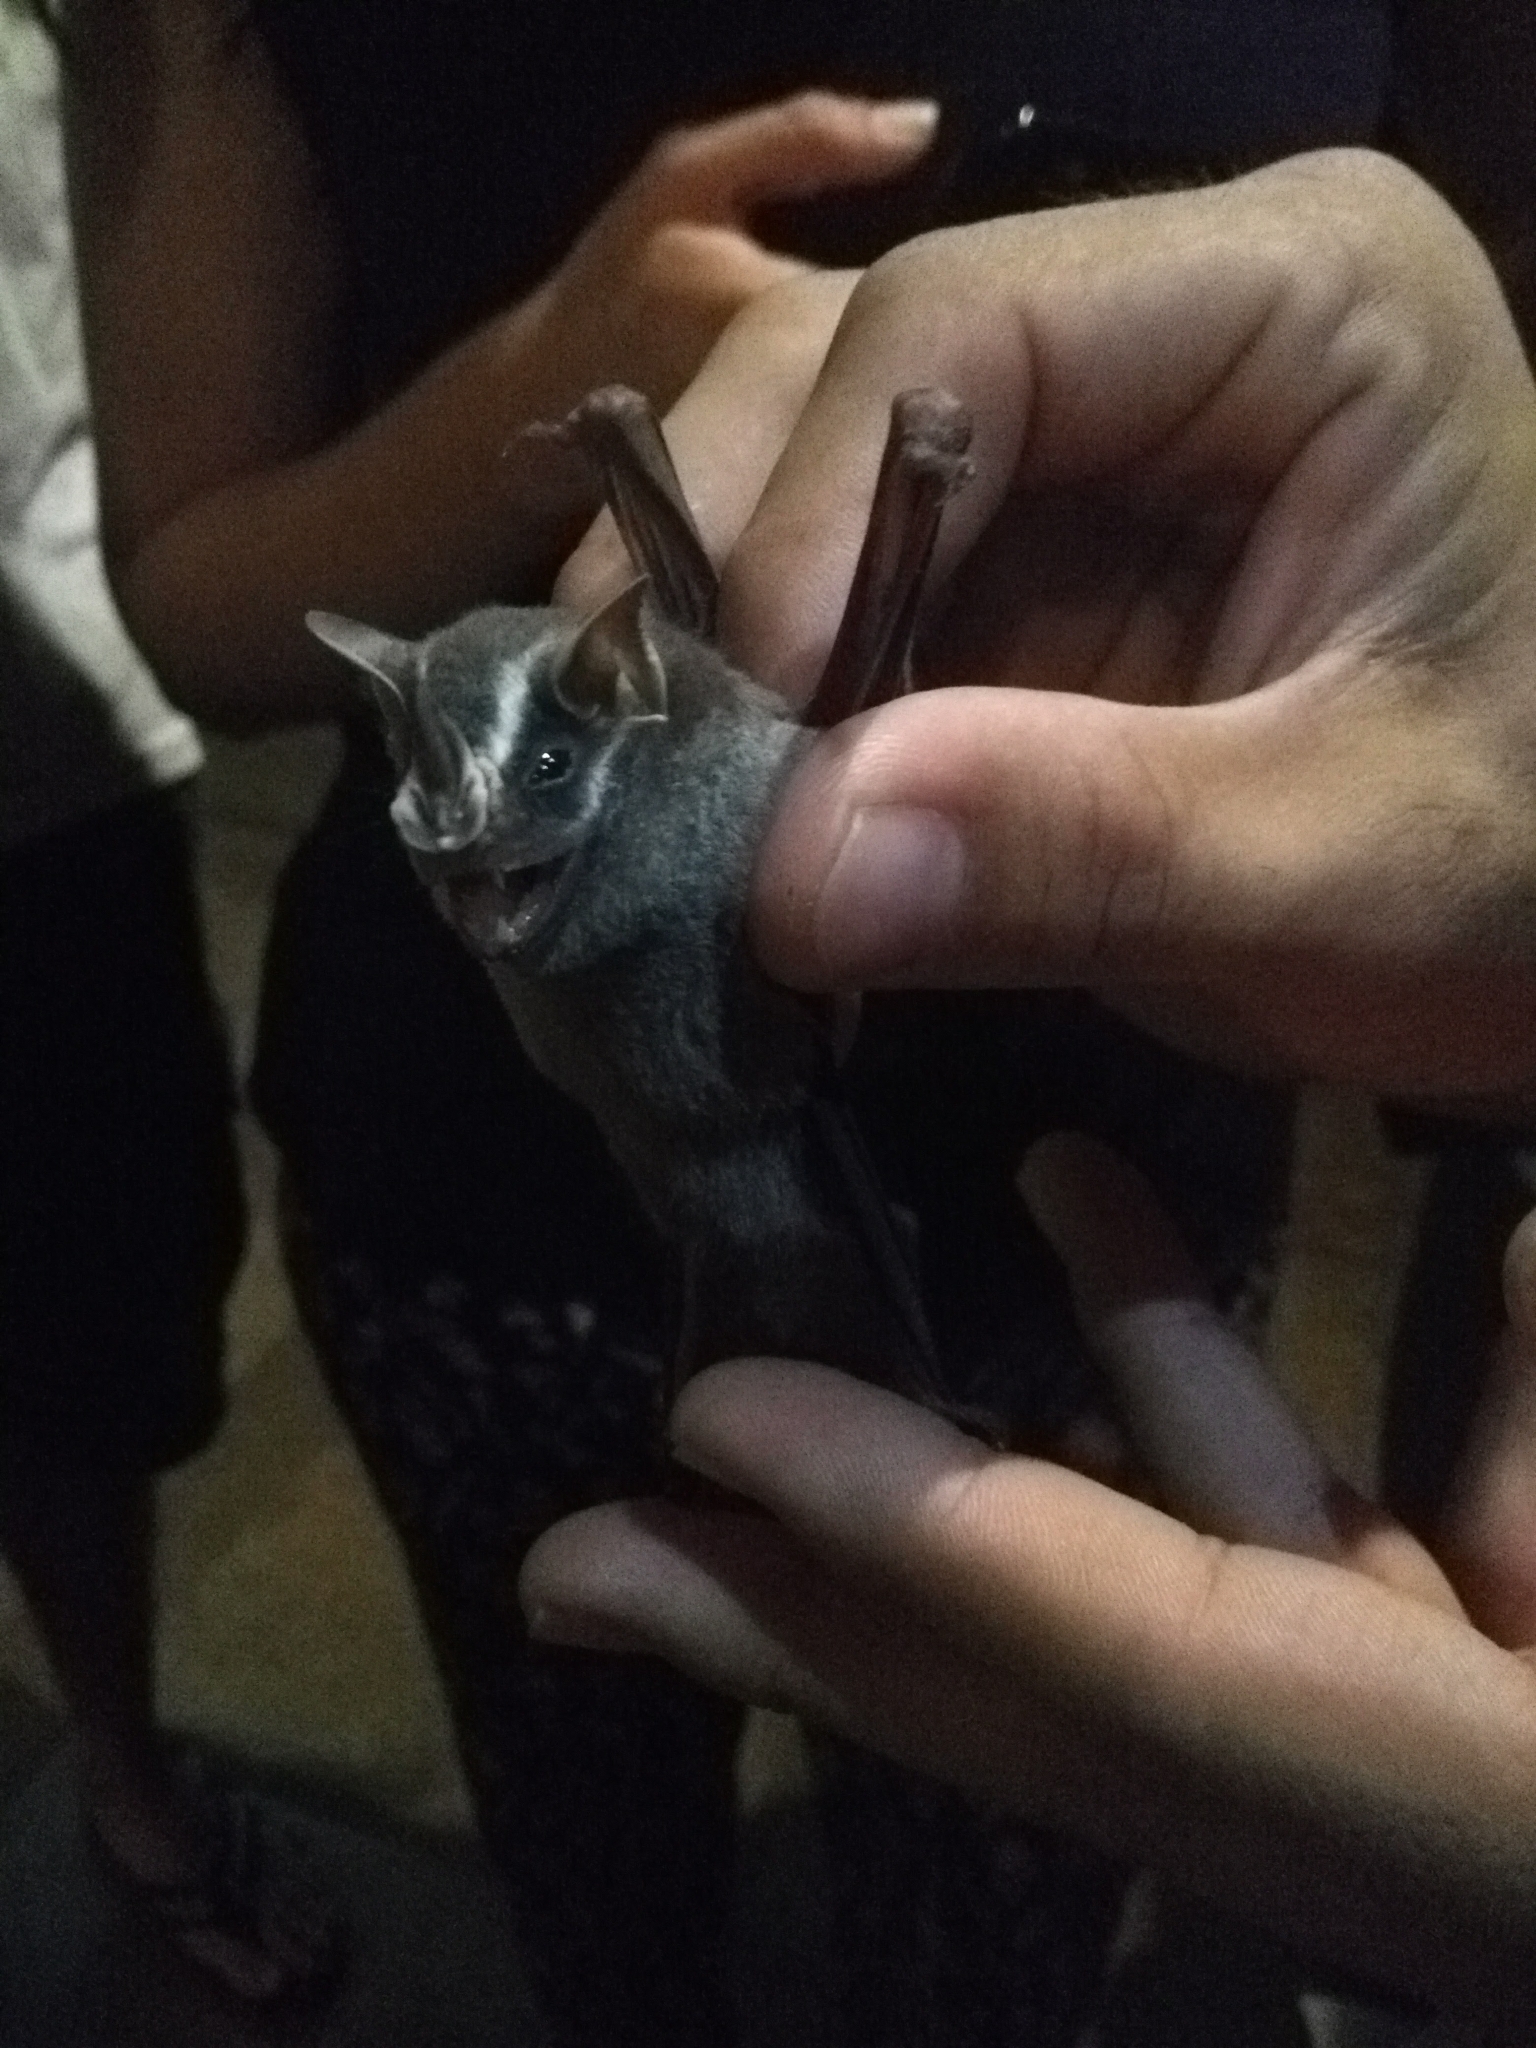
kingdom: Animalia
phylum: Chordata
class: Mammalia
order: Chiroptera
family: Phyllostomidae
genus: Uroderma
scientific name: Uroderma bilobatum
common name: Common tent-making bat
